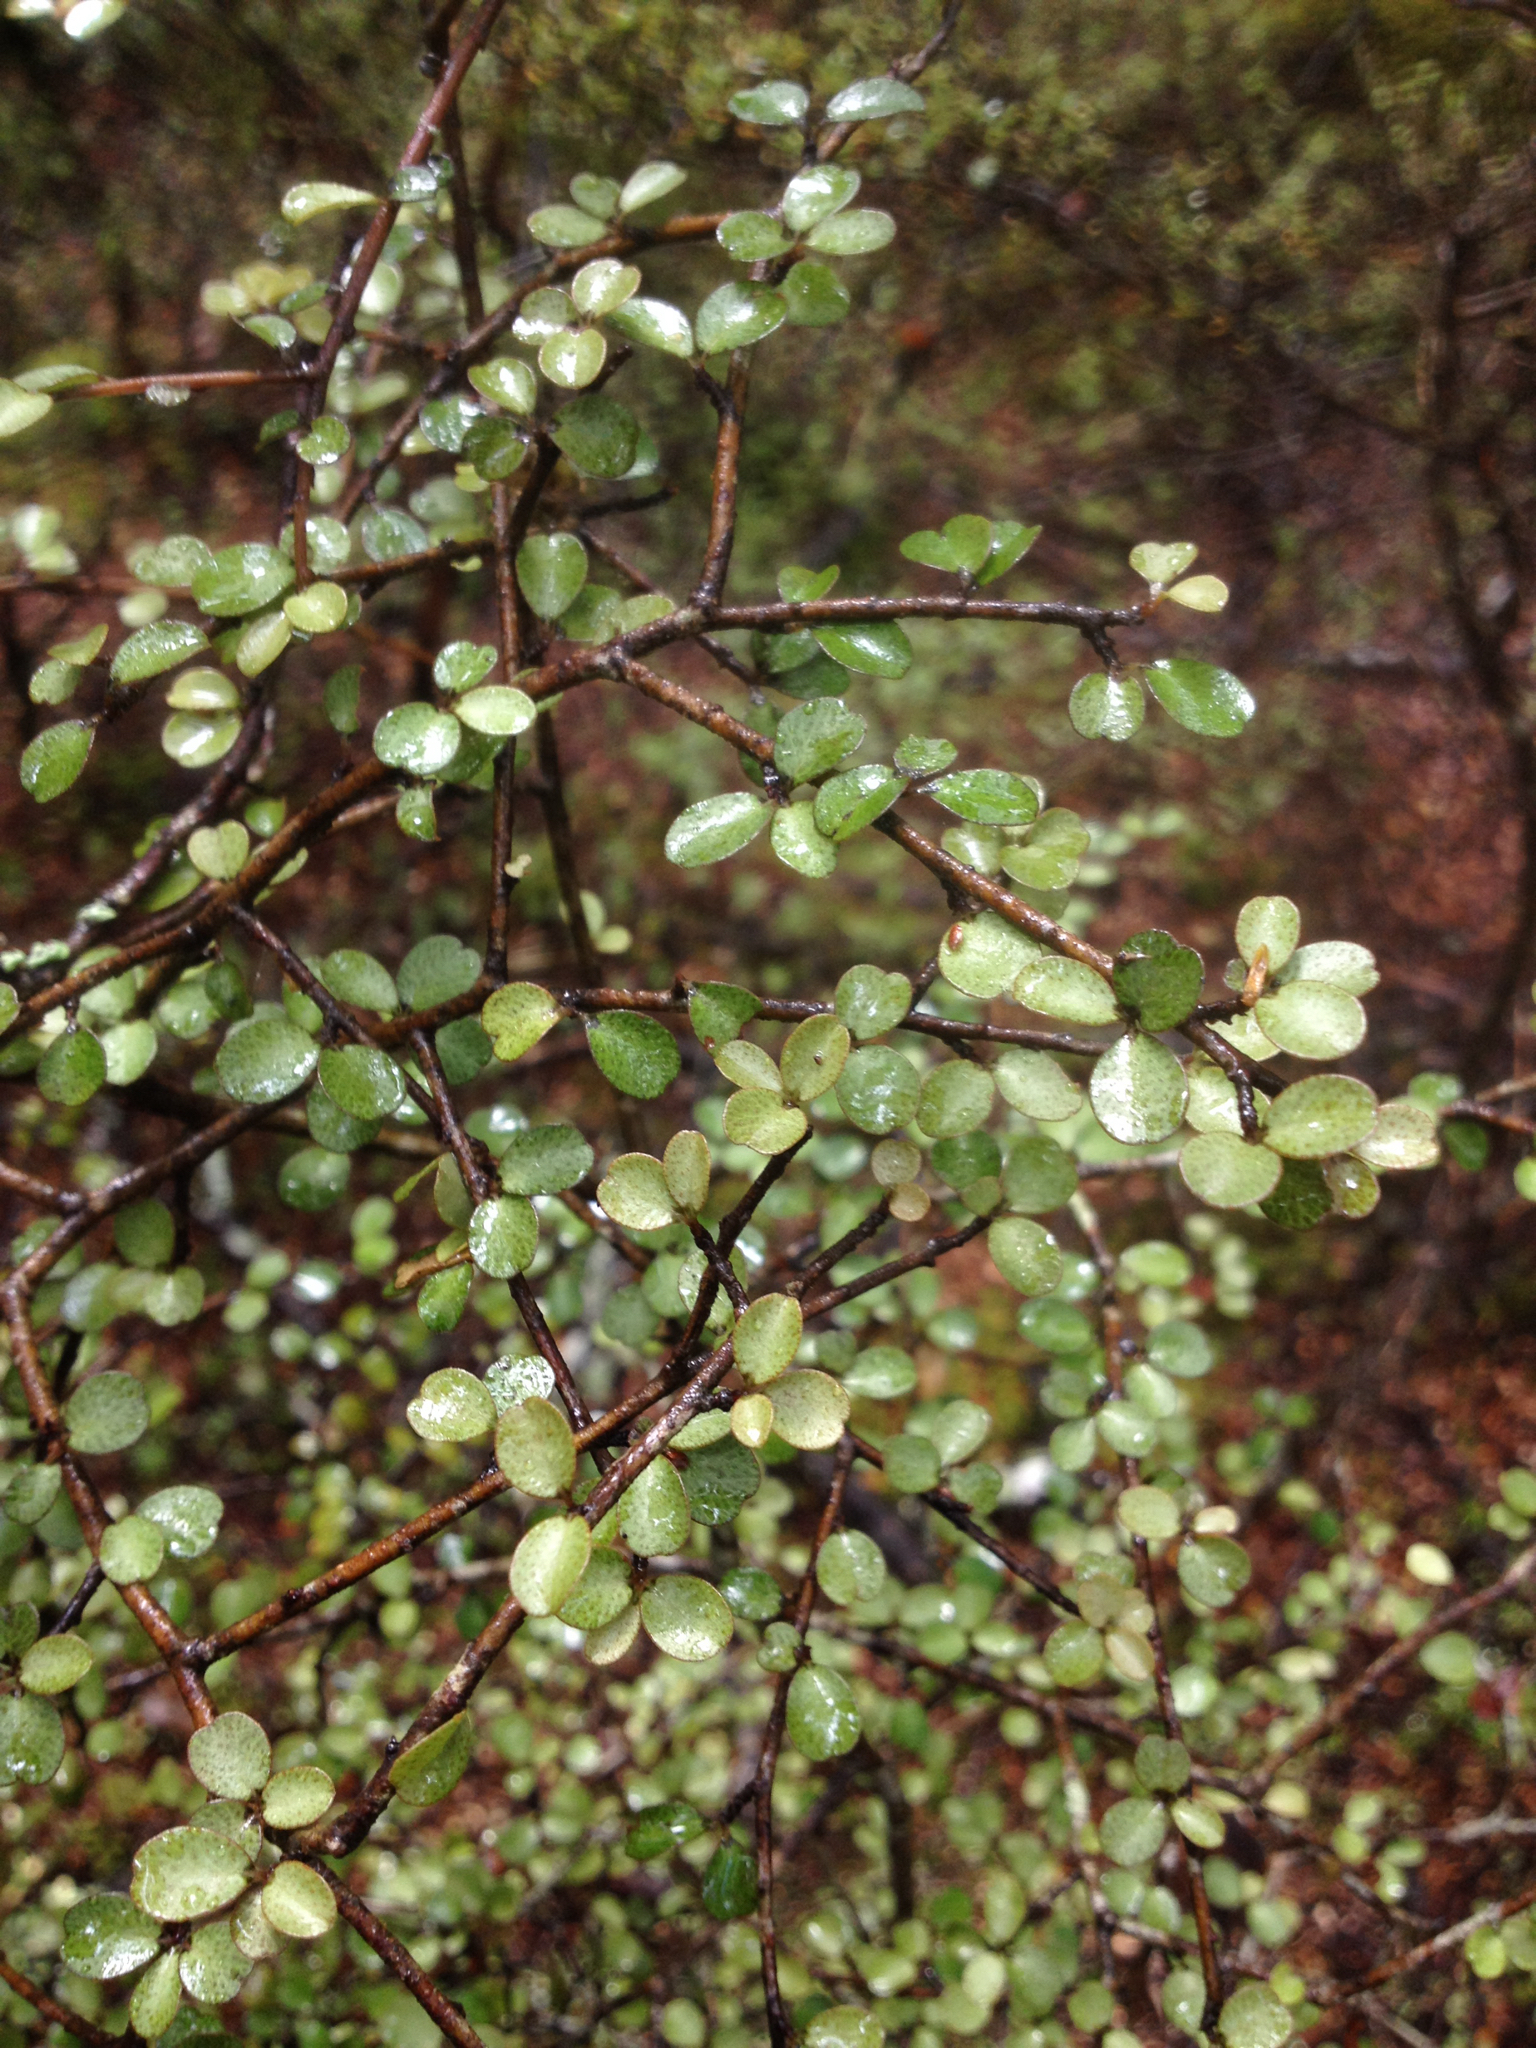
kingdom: Plantae
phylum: Tracheophyta
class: Magnoliopsida
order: Ericales
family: Primulaceae
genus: Myrsine
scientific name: Myrsine divaricata
